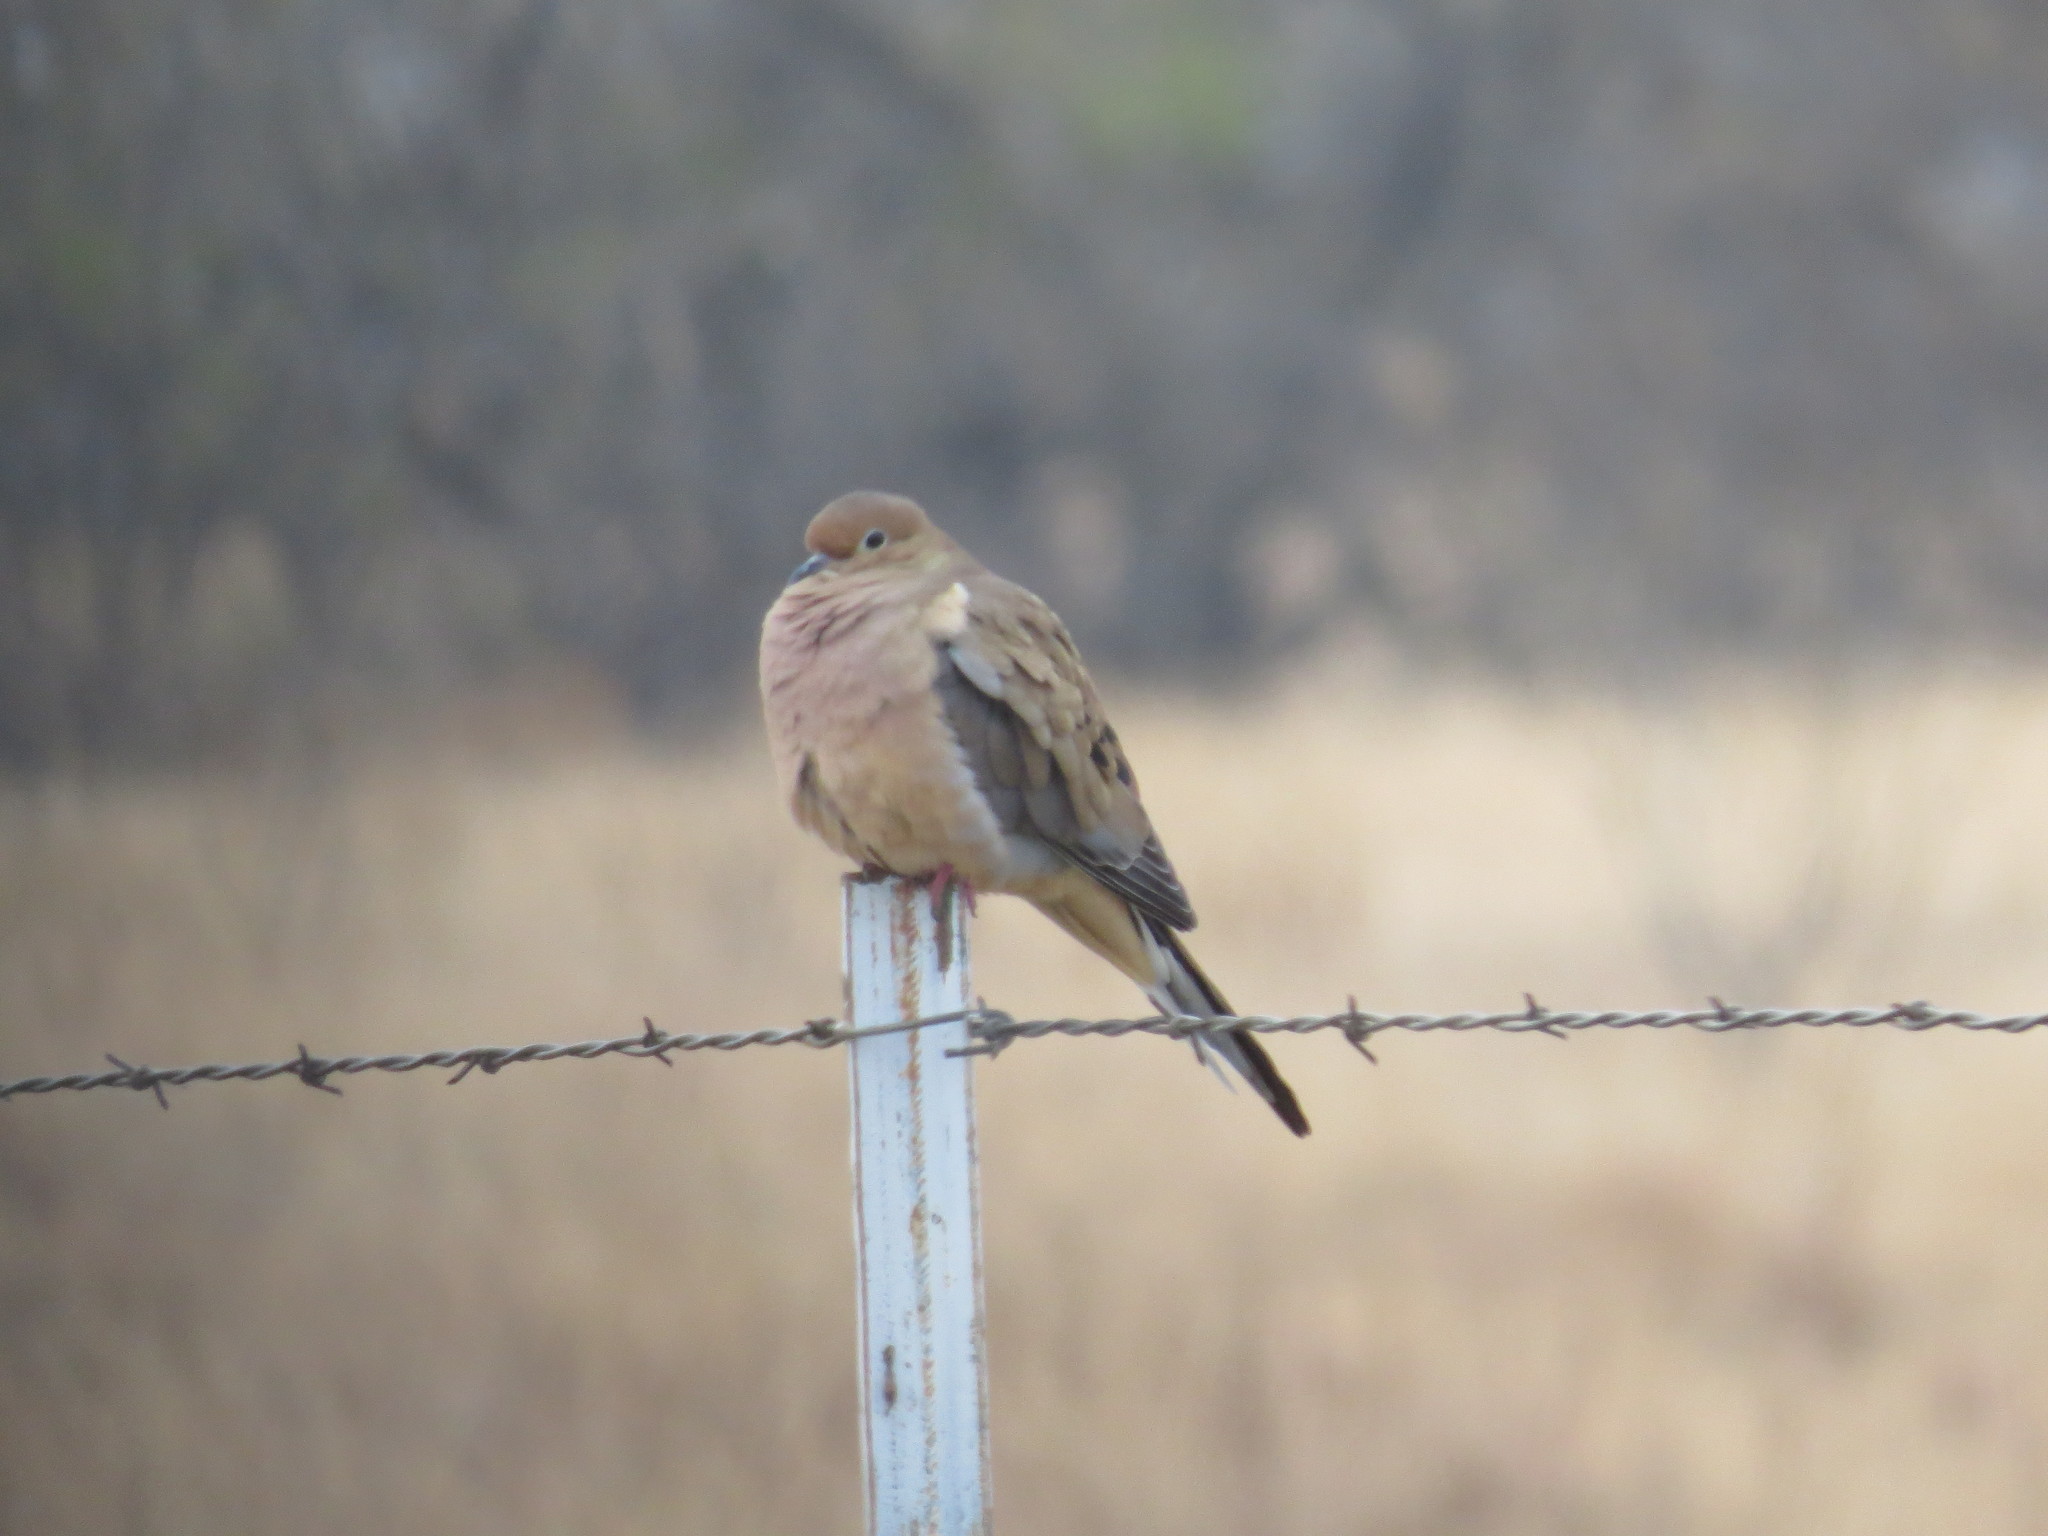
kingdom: Animalia
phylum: Chordata
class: Aves
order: Columbiformes
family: Columbidae
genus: Zenaida
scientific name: Zenaida macroura
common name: Mourning dove
